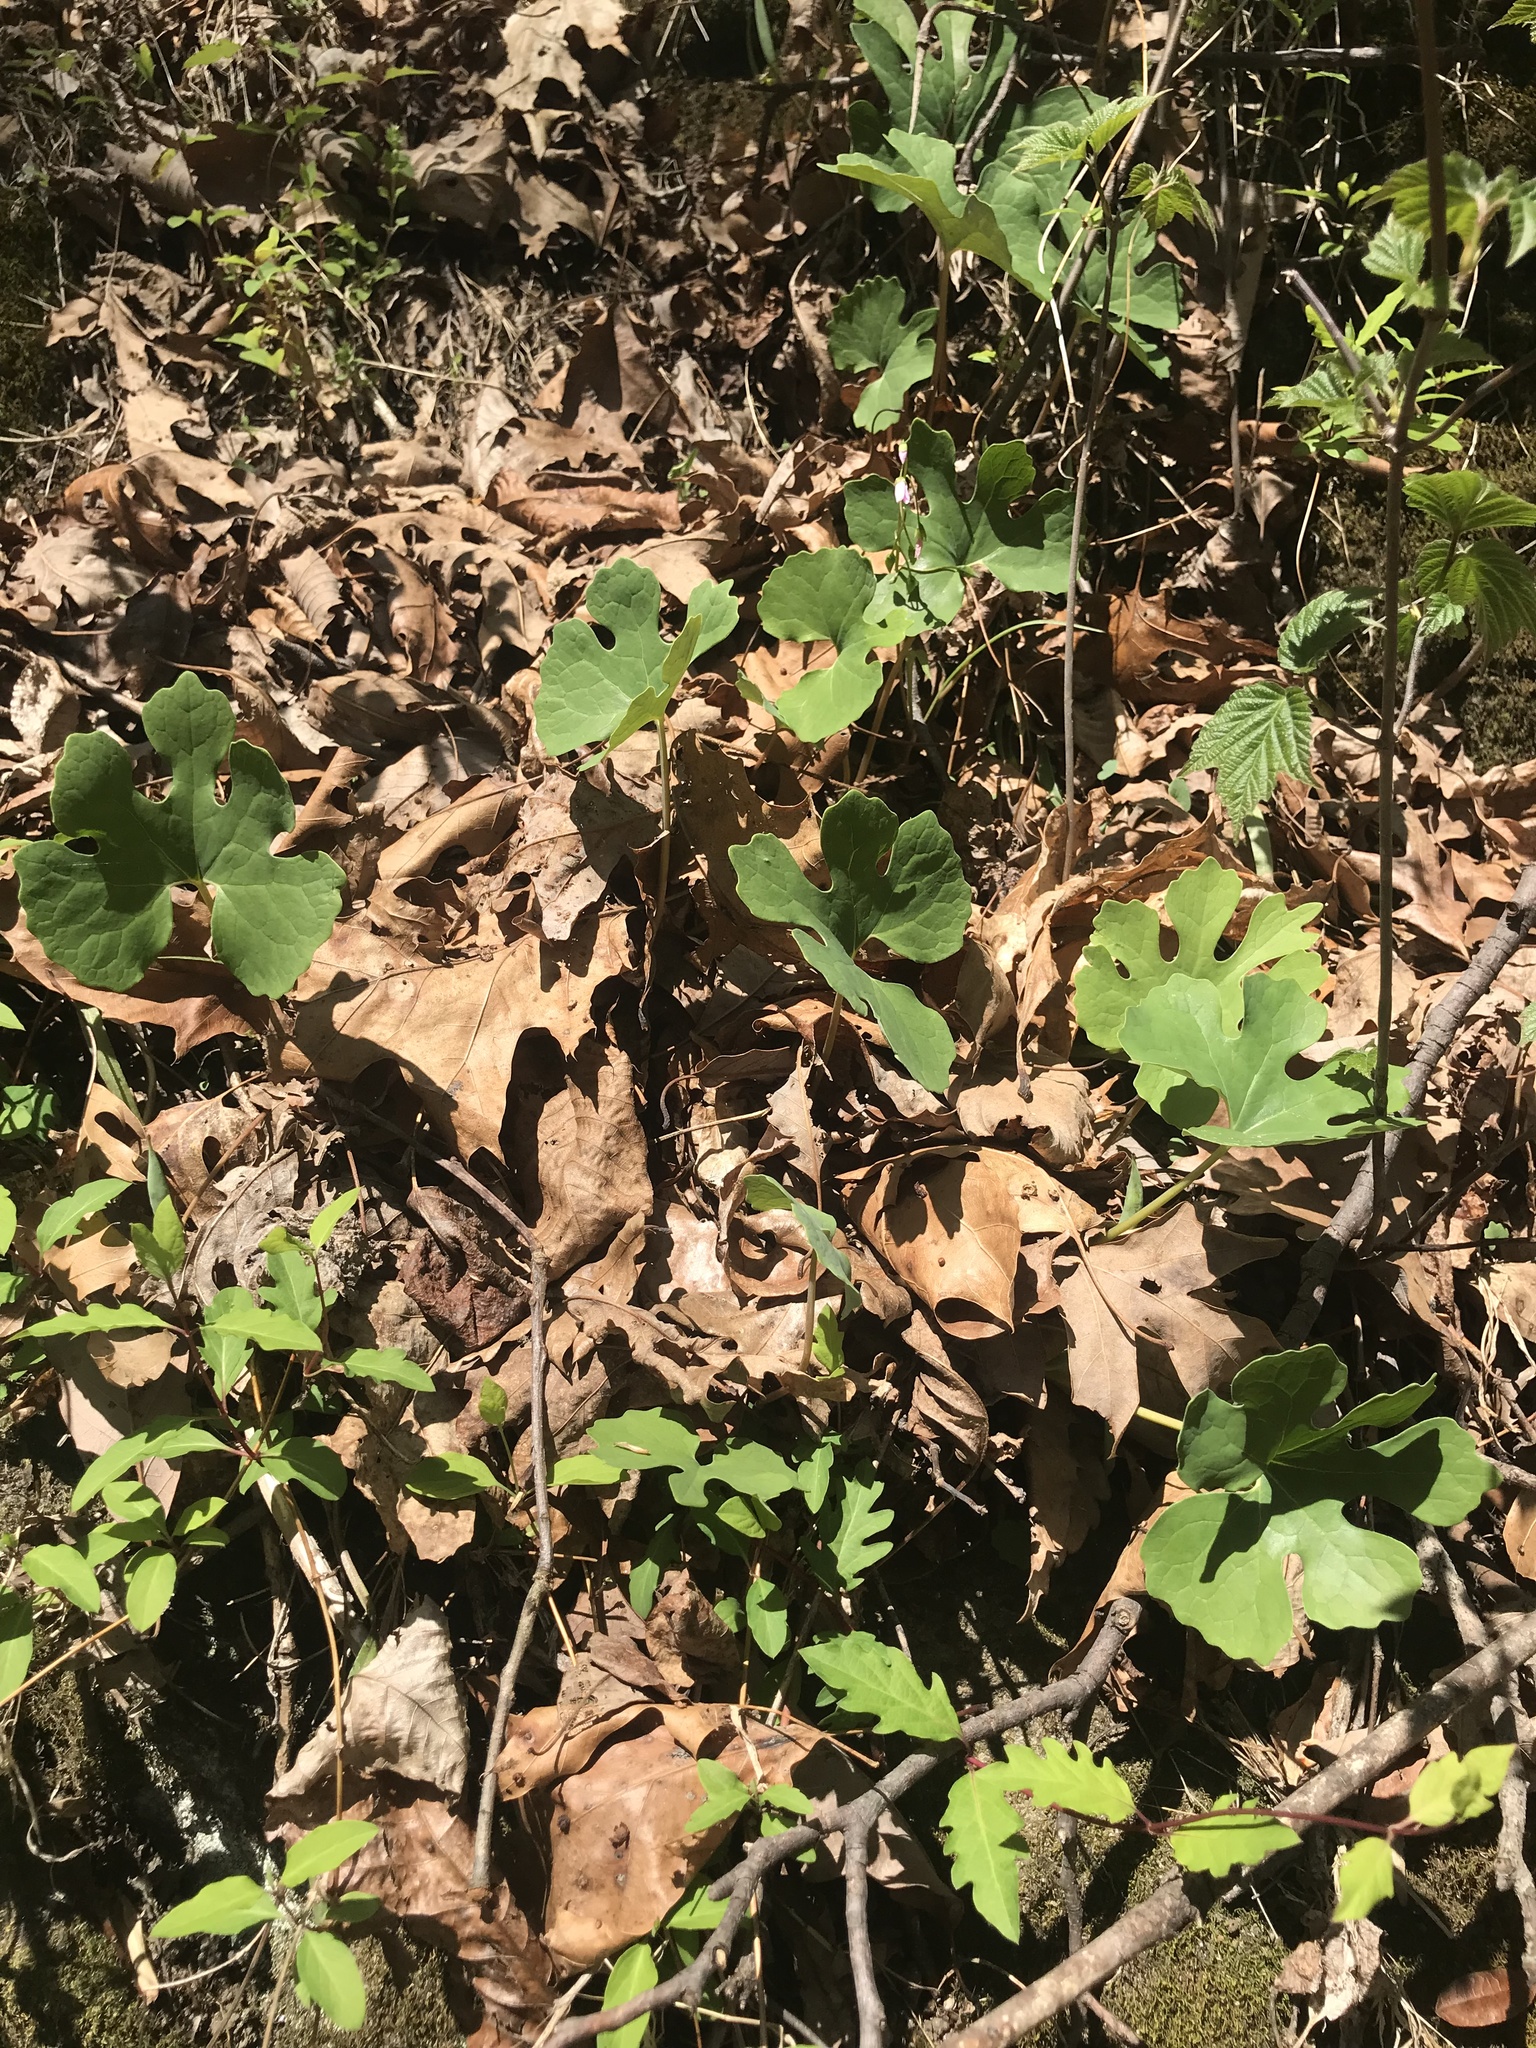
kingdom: Plantae
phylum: Tracheophyta
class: Magnoliopsida
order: Ranunculales
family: Papaveraceae
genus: Sanguinaria
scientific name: Sanguinaria canadensis
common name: Bloodroot
